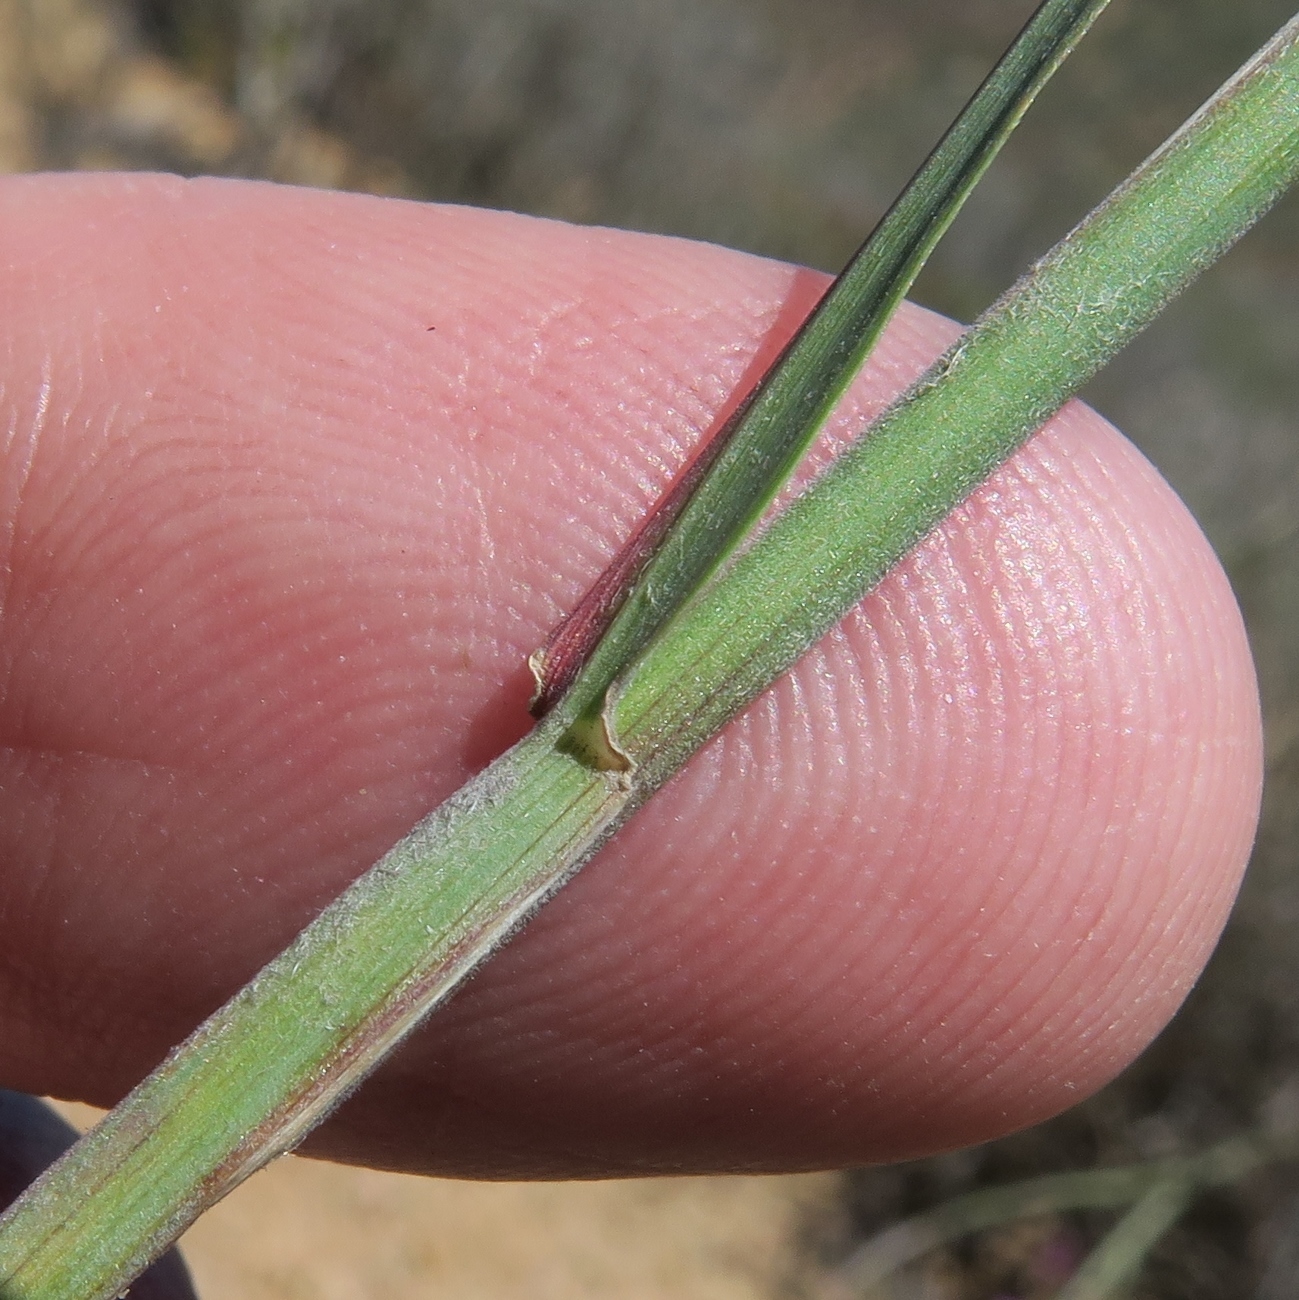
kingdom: Plantae
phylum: Tracheophyta
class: Liliopsida
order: Poales
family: Poaceae
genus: Ehrharta
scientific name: Ehrharta thunbergii
